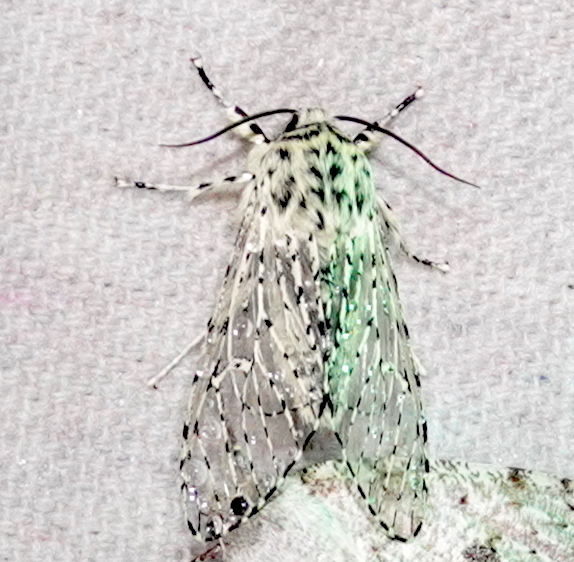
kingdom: Animalia
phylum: Arthropoda
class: Insecta
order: Lepidoptera
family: Noctuidae
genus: Gaujonia
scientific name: Gaujonia chiqyaq
